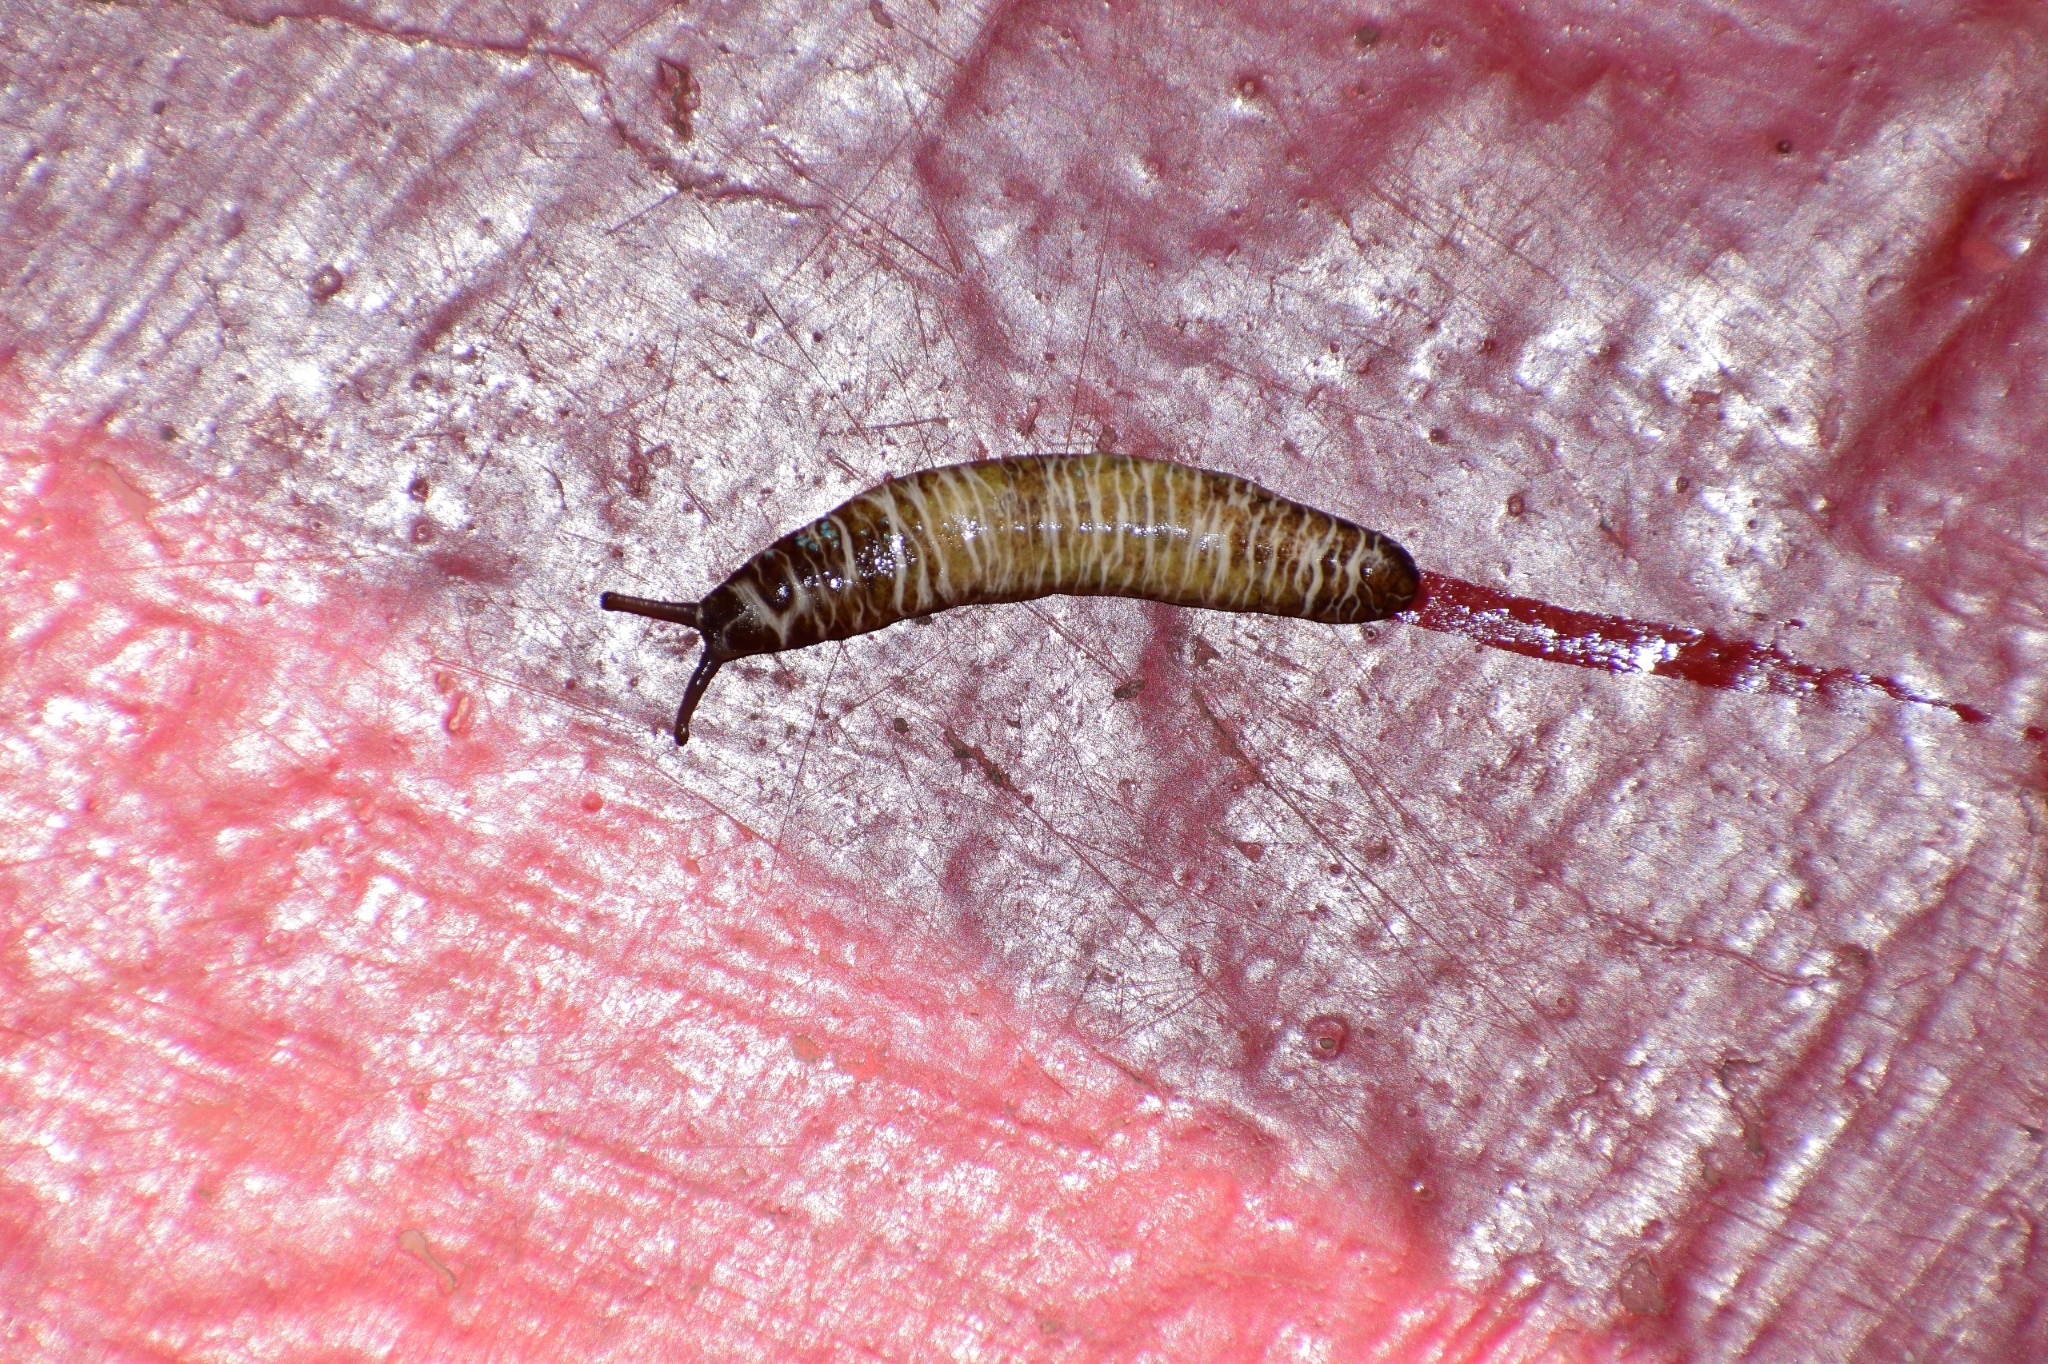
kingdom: Animalia
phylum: Mollusca
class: Gastropoda
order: Systellommatophora
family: Veronicellidae
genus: Laevicaulis
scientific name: Laevicaulis haroldi
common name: Caterpillar slug
